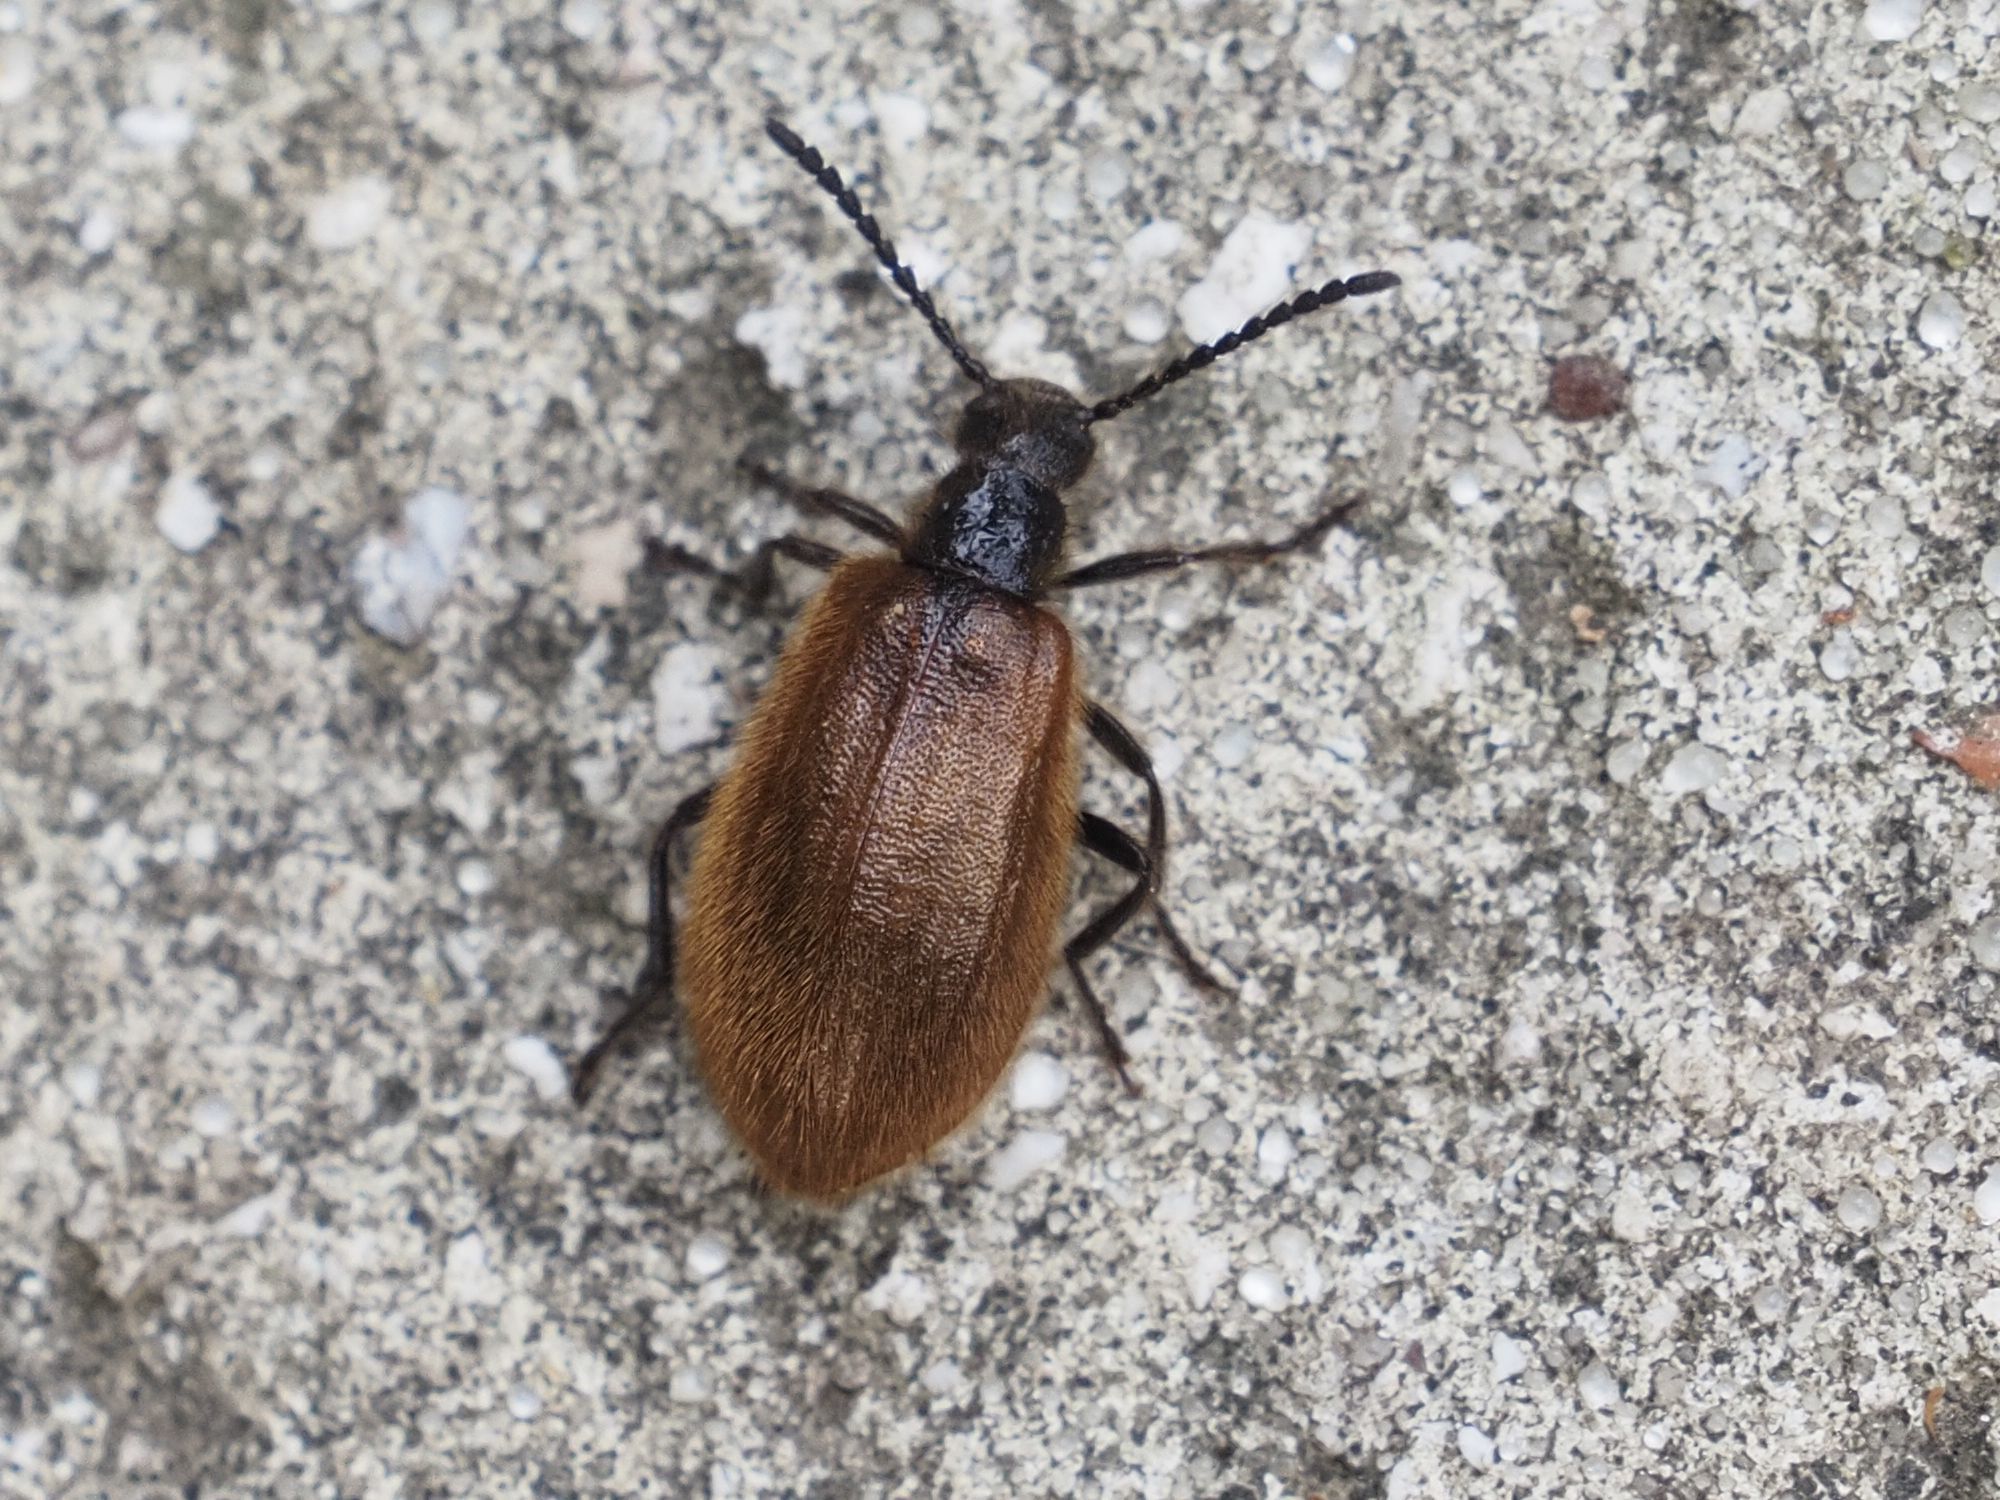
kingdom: Animalia
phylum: Arthropoda
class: Insecta
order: Coleoptera
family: Tenebrionidae
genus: Lagria
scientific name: Lagria hirta
